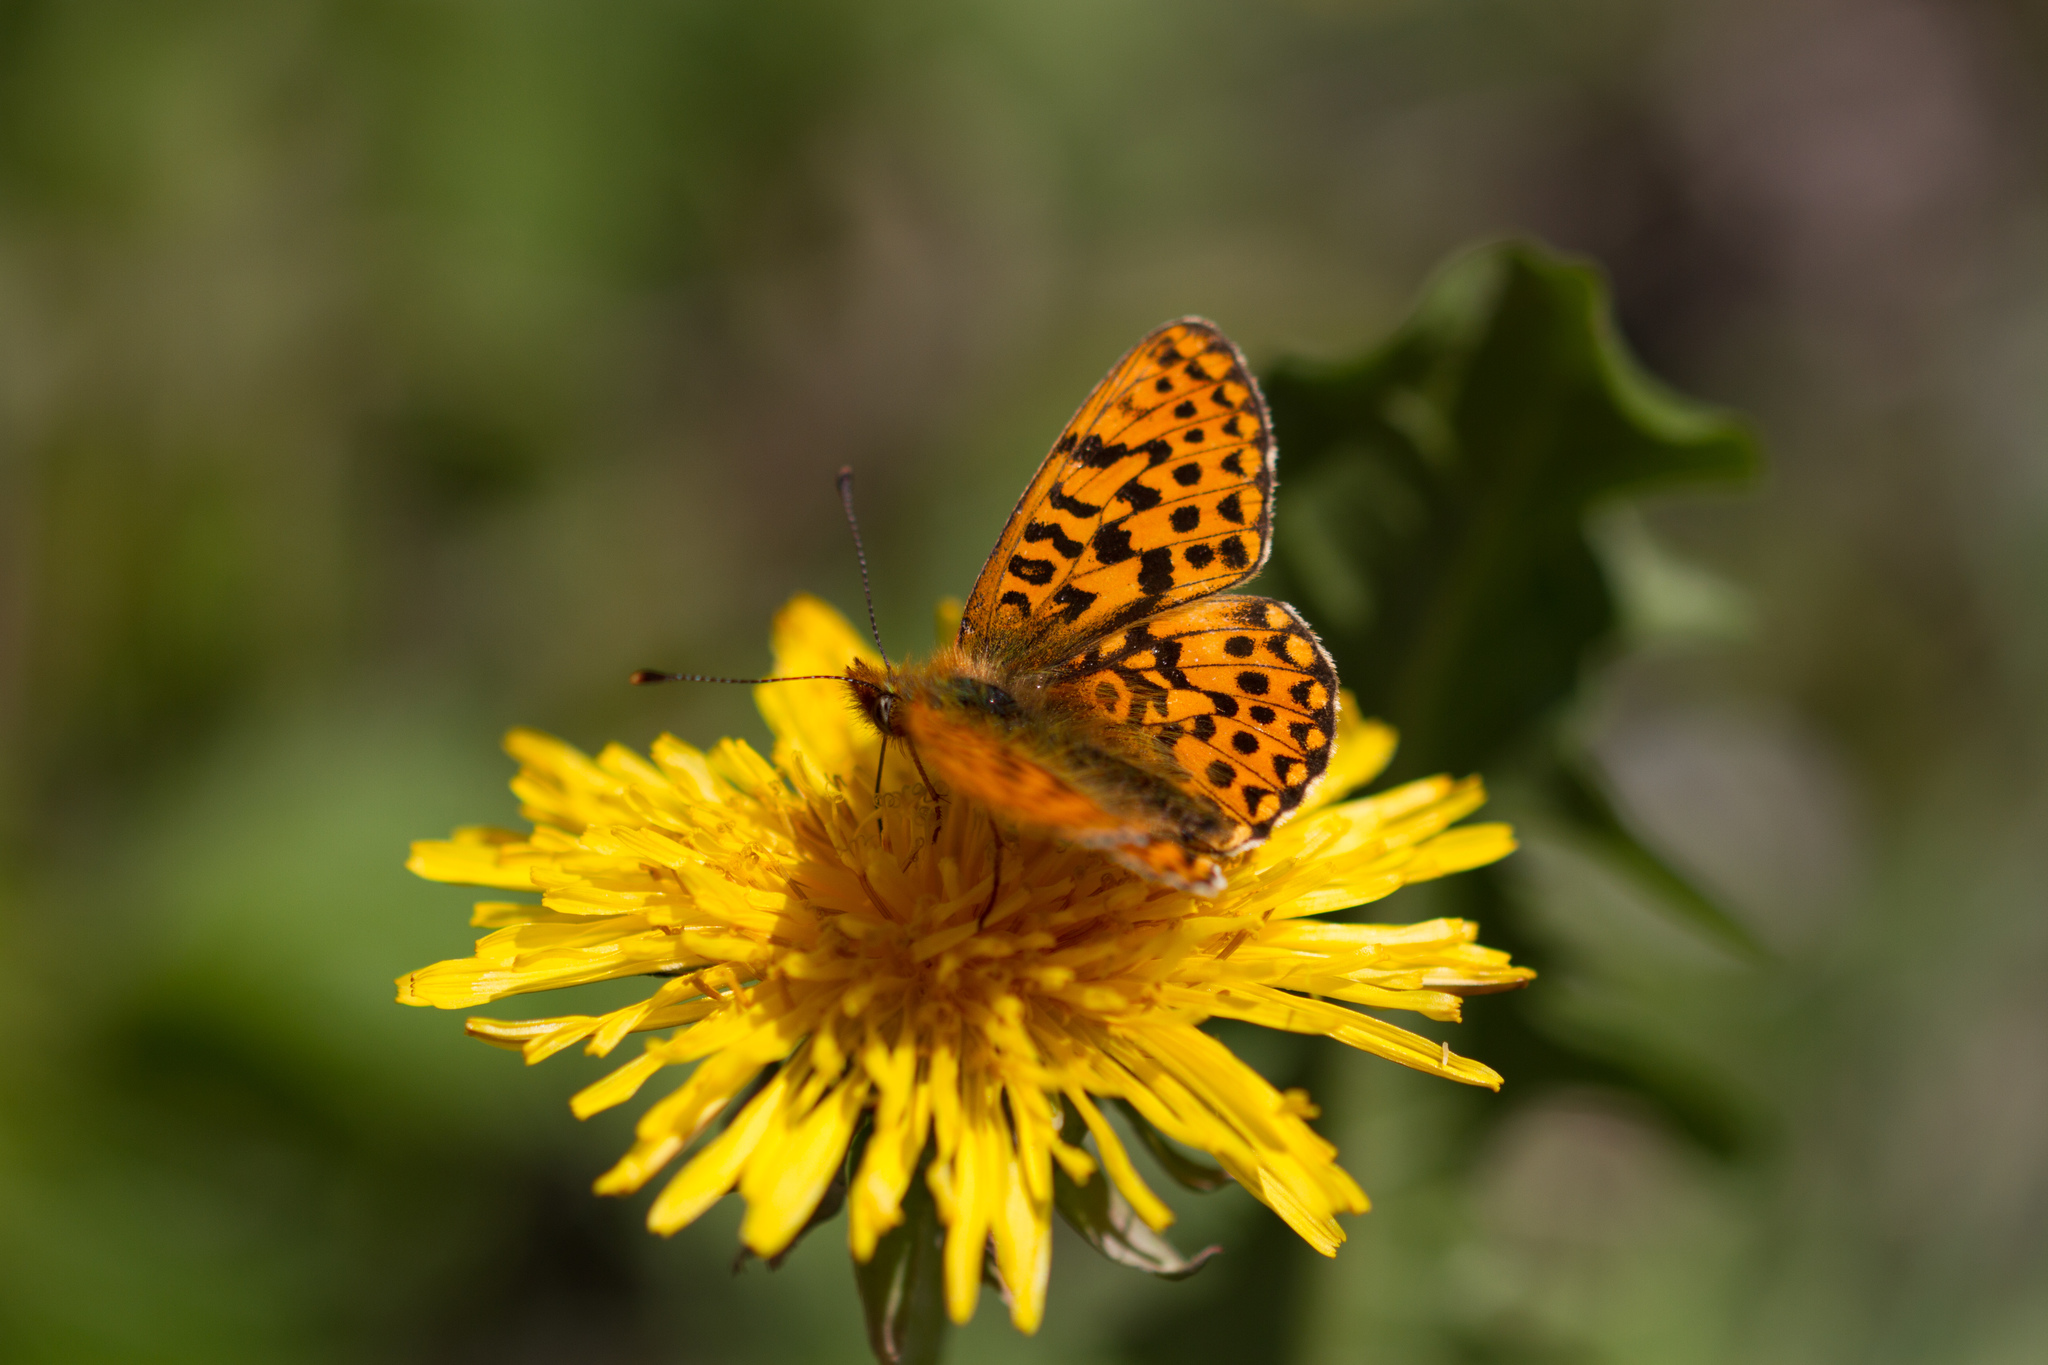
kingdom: Animalia
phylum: Arthropoda
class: Insecta
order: Lepidoptera
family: Nymphalidae
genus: Clossiana
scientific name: Clossiana euphrosyne
